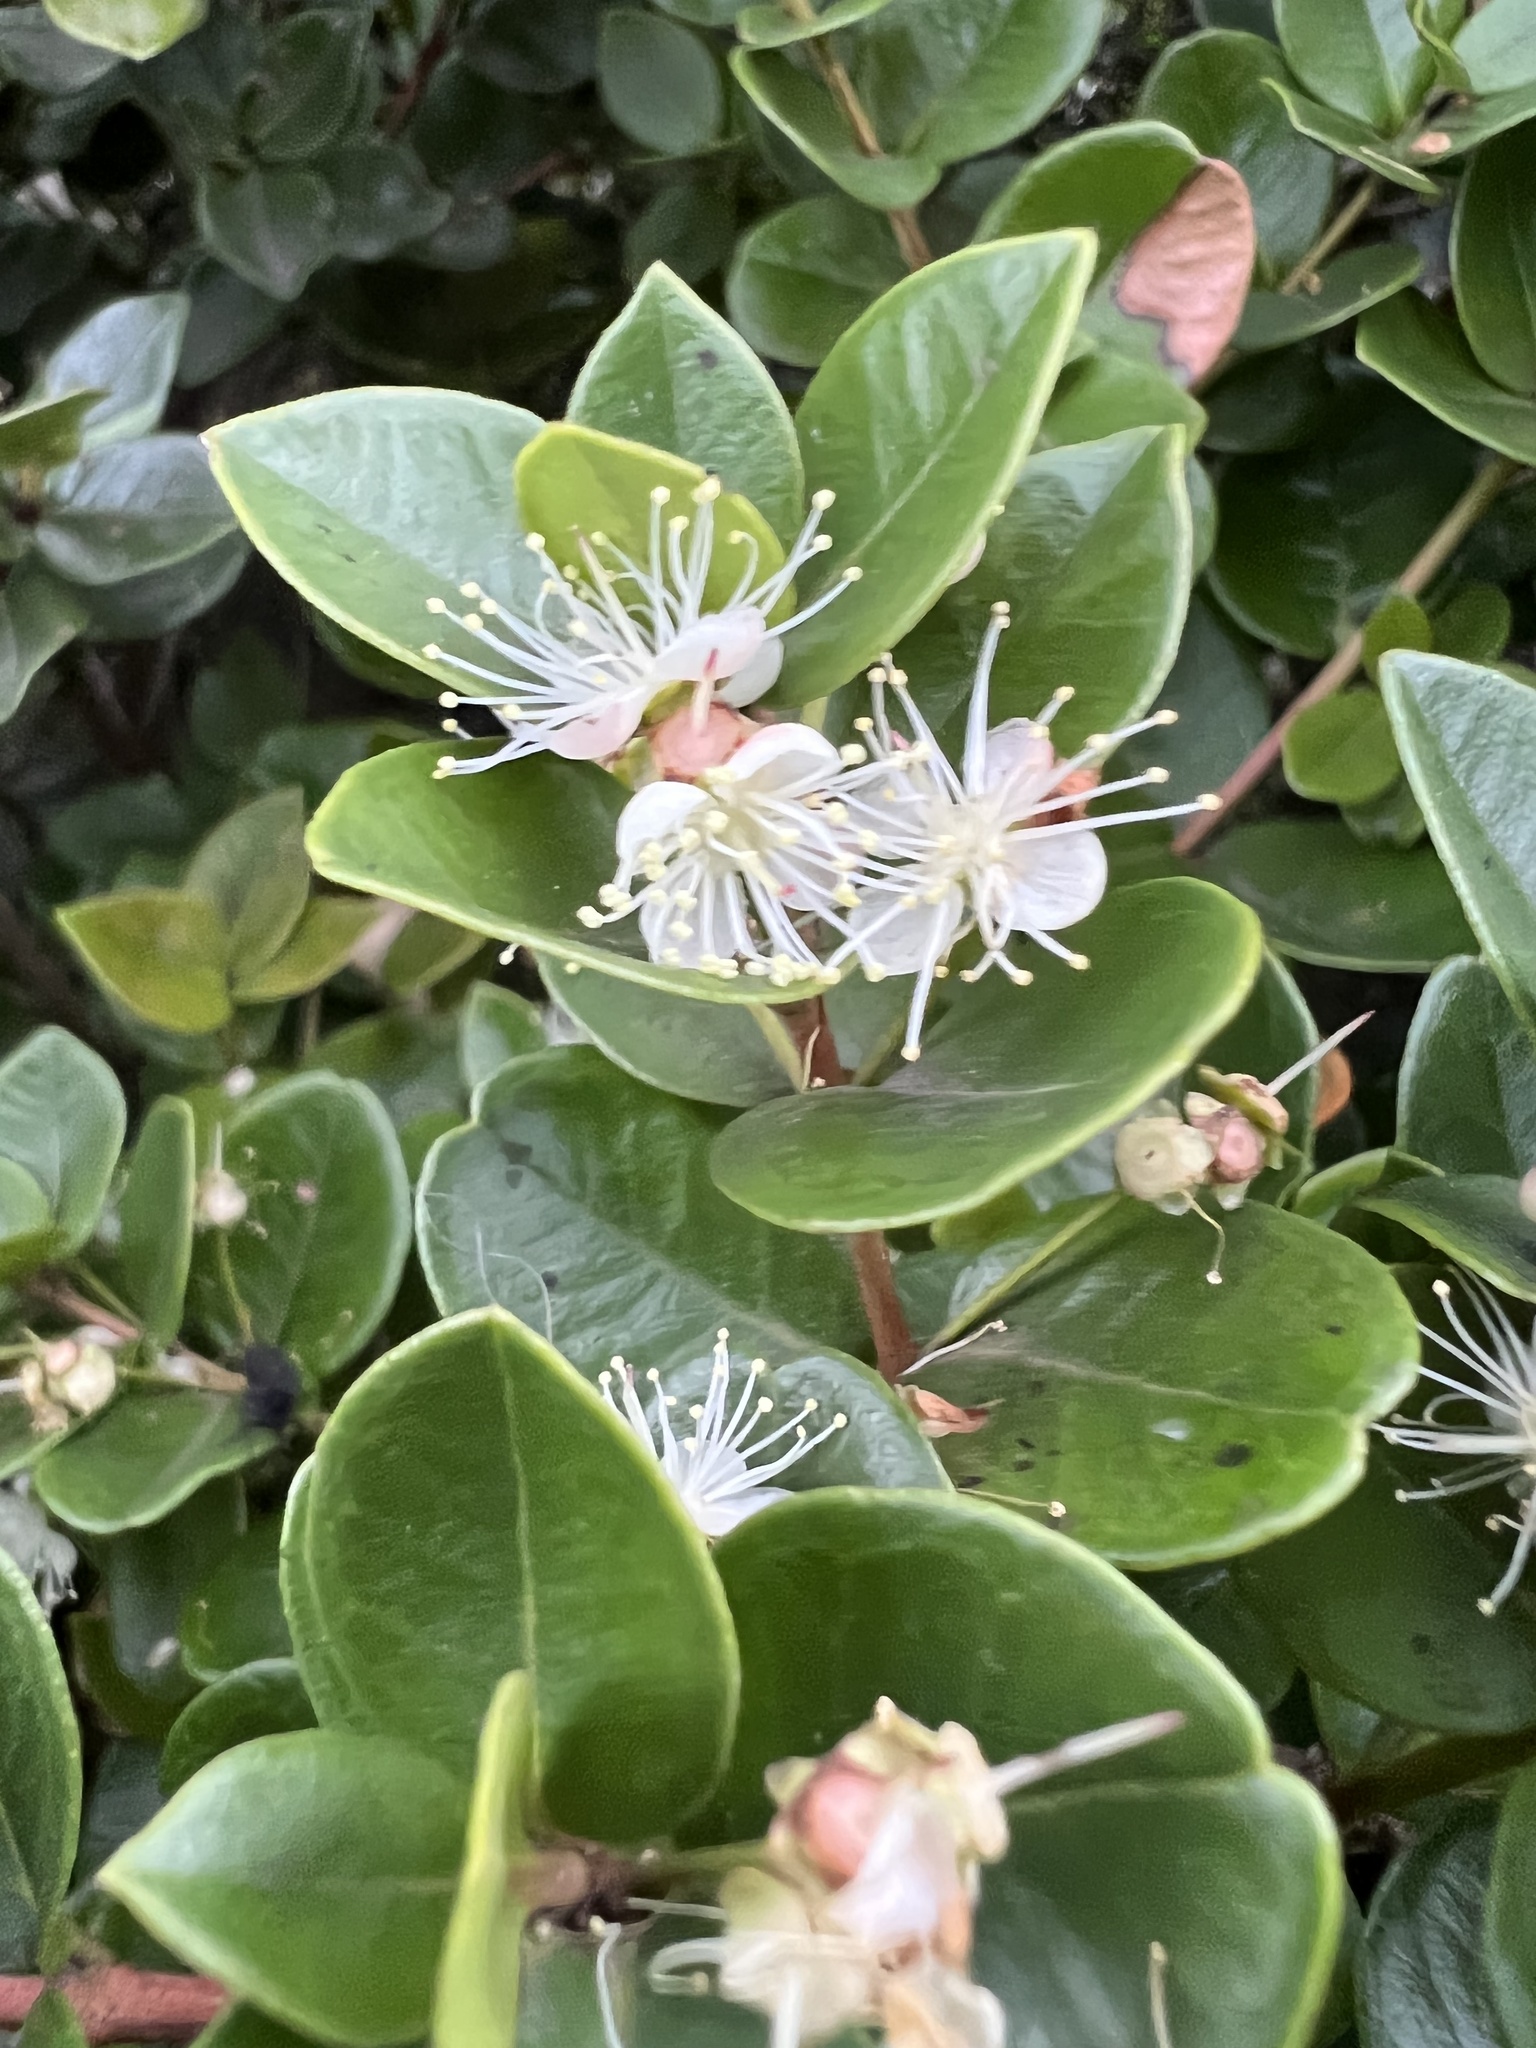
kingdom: Plantae
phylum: Tracheophyta
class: Magnoliopsida
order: Myrtales
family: Myrtaceae
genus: Myrcianthes
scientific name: Myrcianthes leucoxyla
